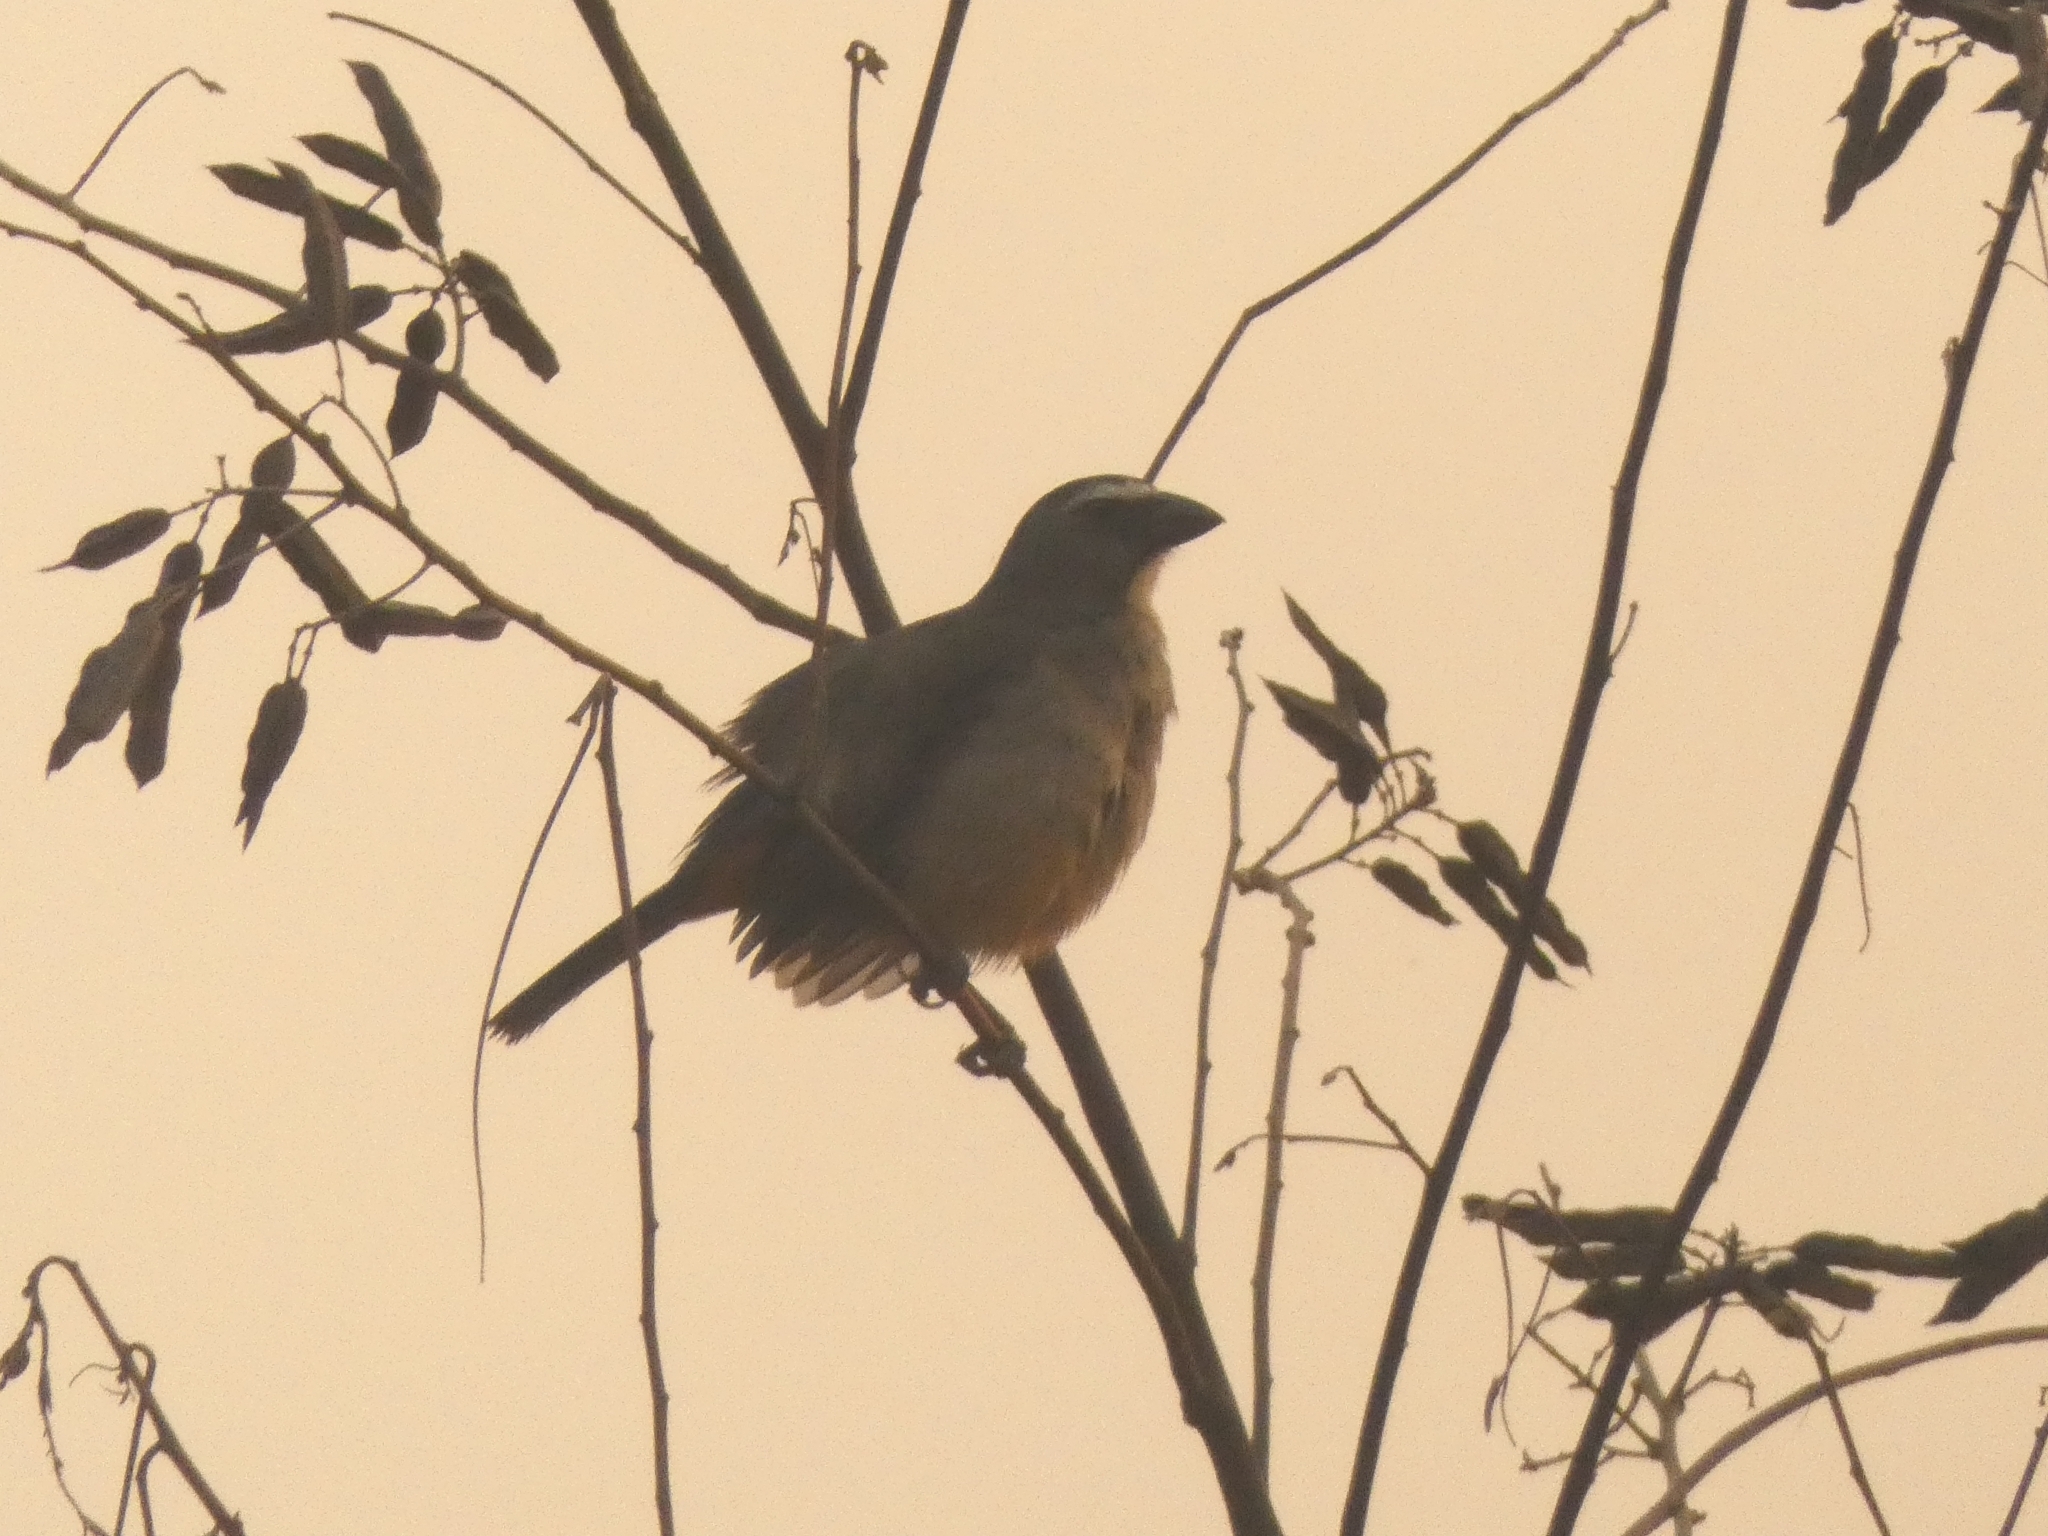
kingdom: Animalia
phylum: Chordata
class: Aves
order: Passeriformes
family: Thraupidae
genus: Saltator
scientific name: Saltator coerulescens
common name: Grayish saltator
